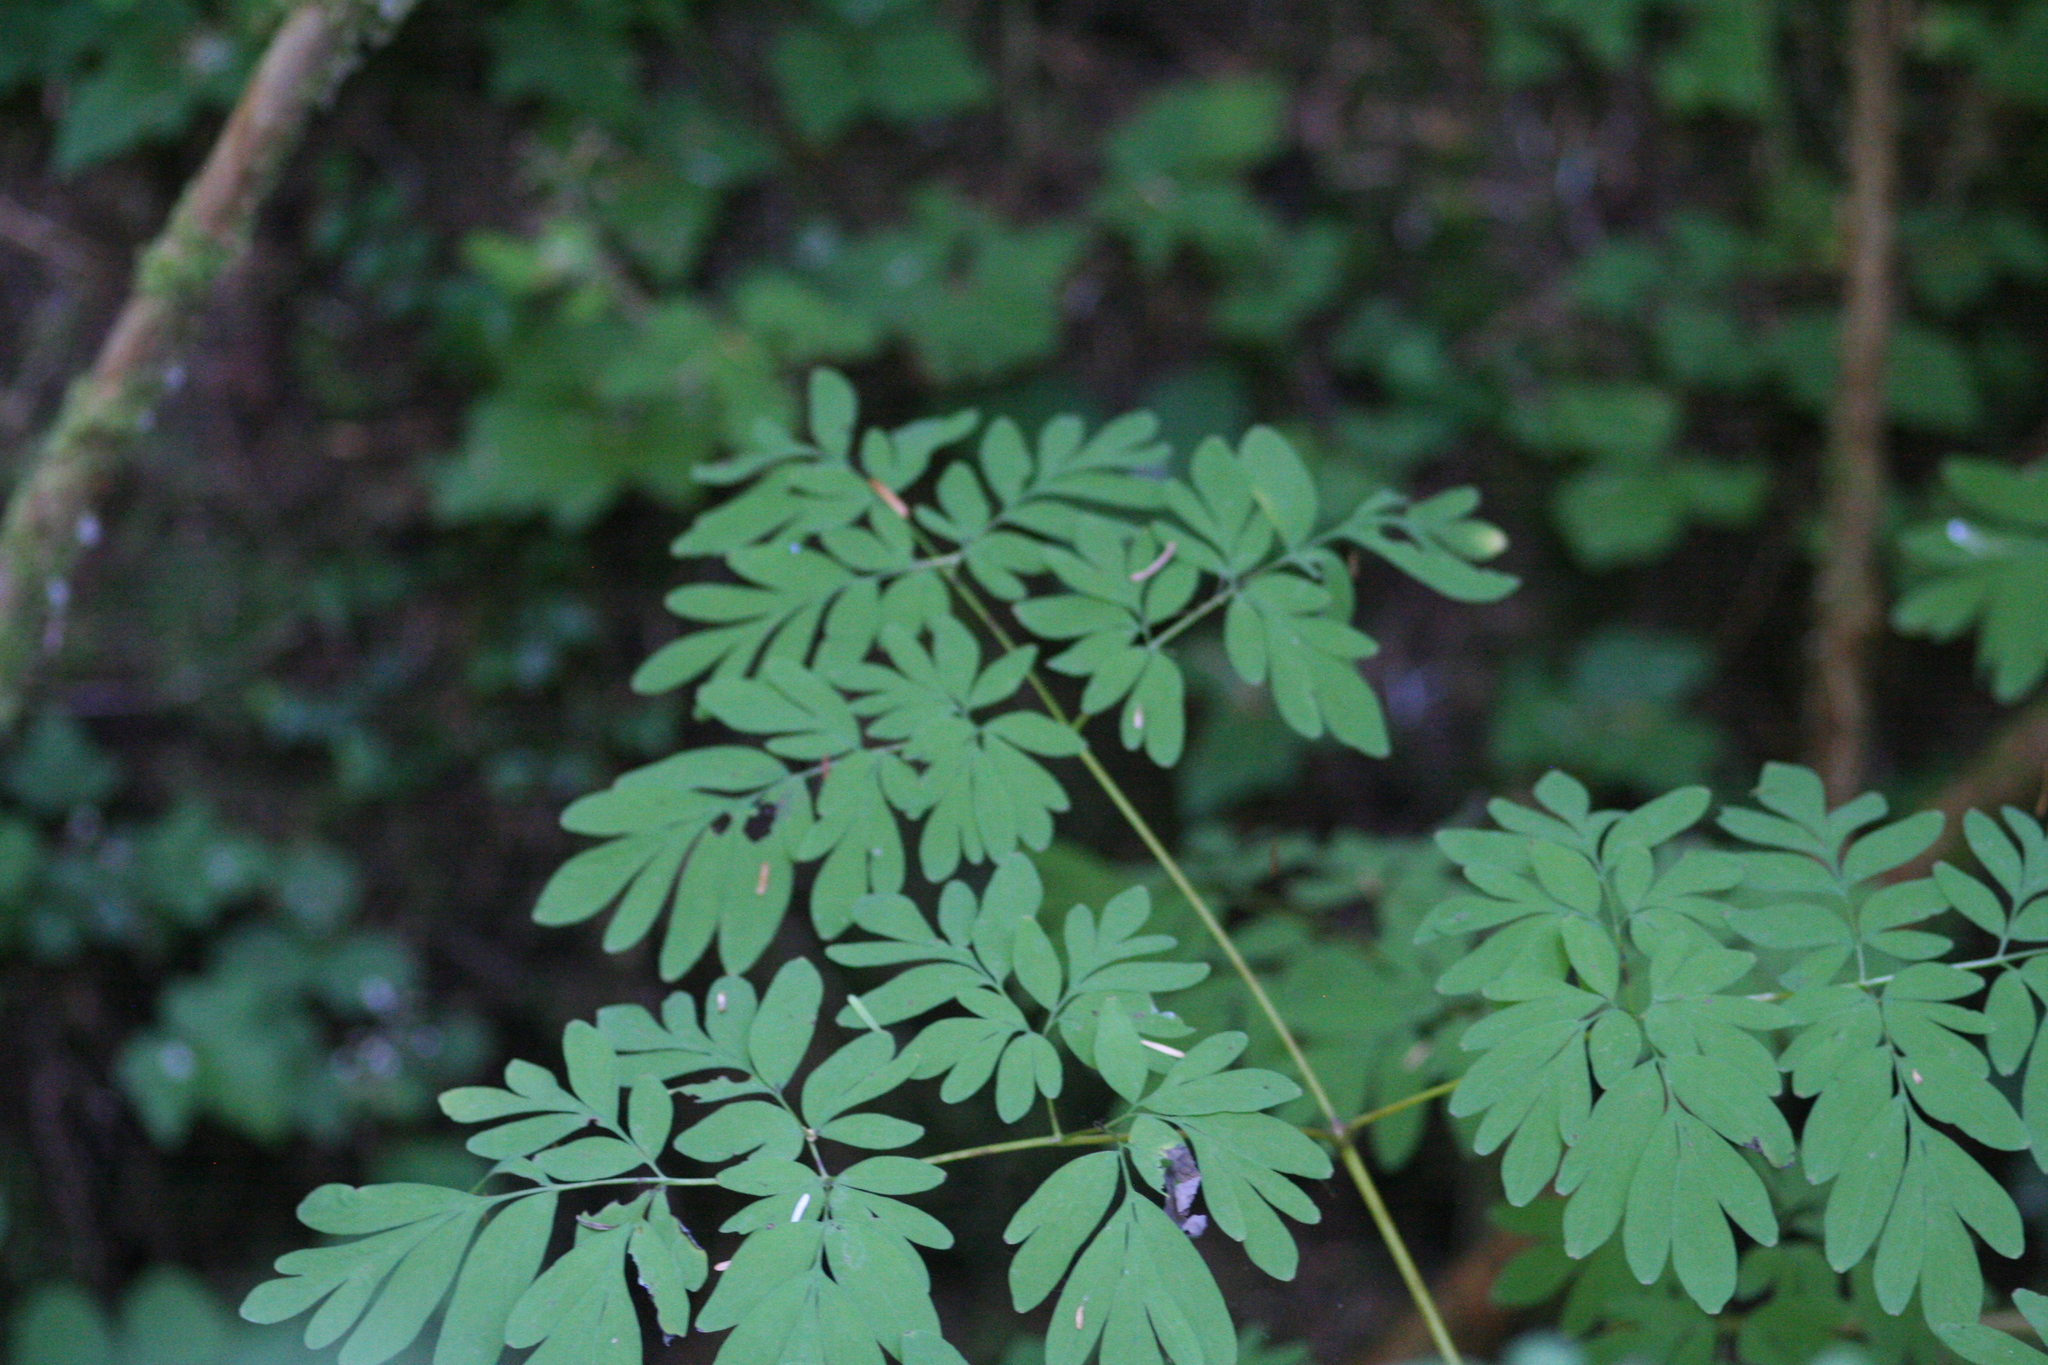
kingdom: Plantae
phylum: Tracheophyta
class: Magnoliopsida
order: Ranunculales
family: Papaveraceae
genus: Corydalis
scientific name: Corydalis scouleri
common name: Scouler's corydalis
